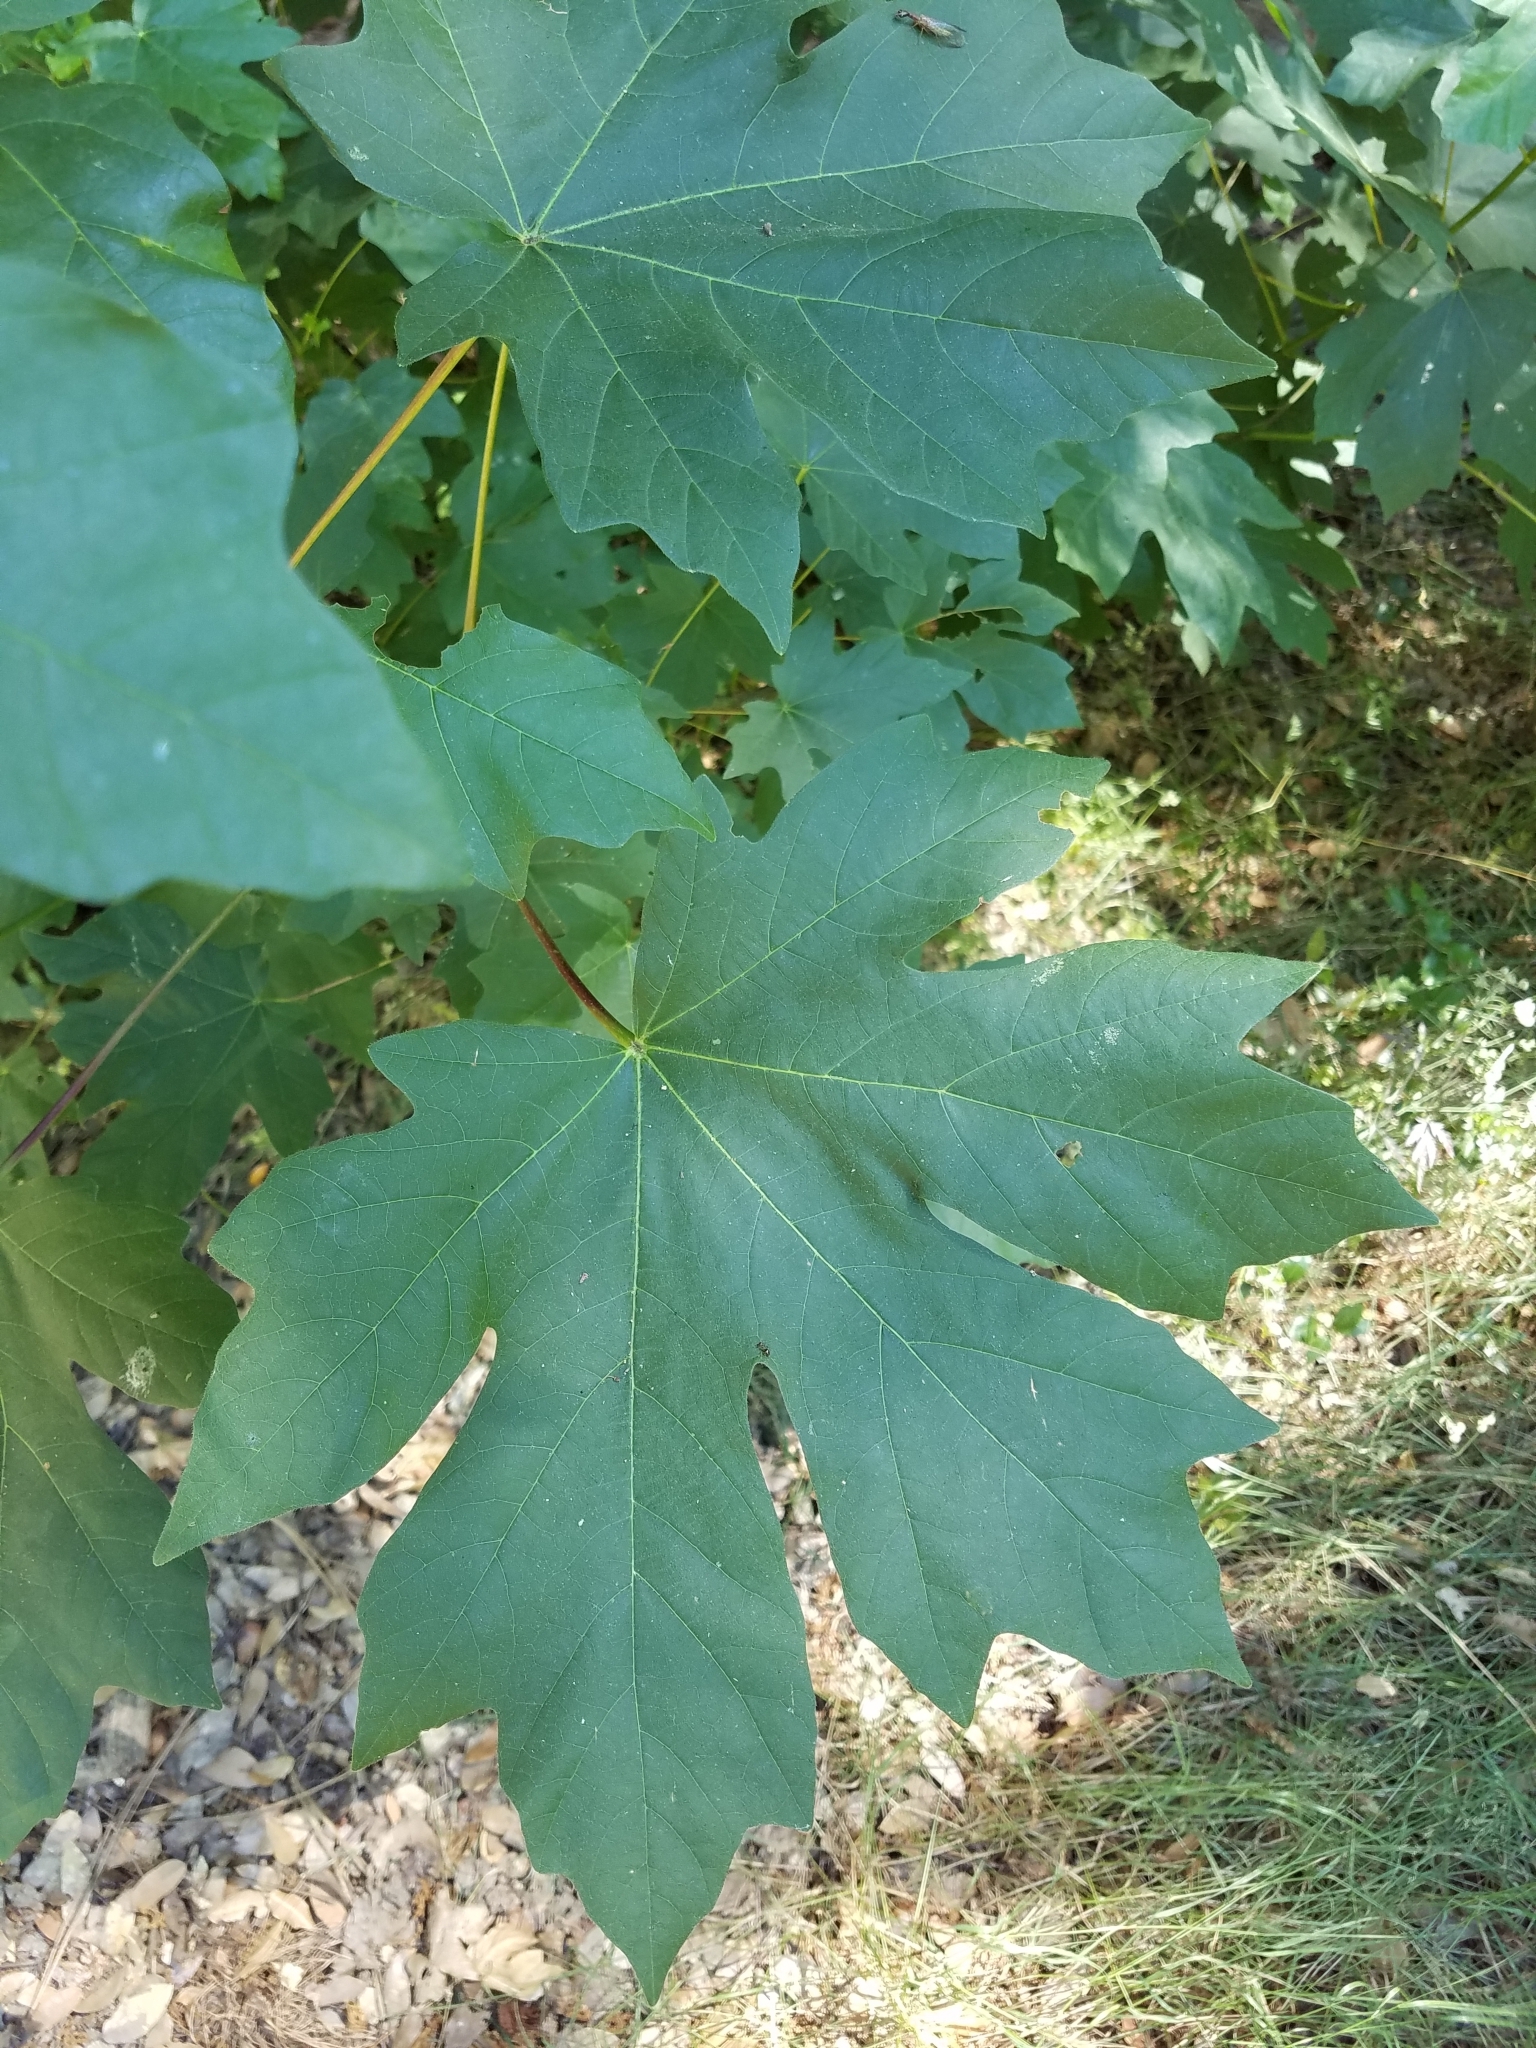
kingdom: Plantae
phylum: Tracheophyta
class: Magnoliopsida
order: Sapindales
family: Sapindaceae
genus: Acer
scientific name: Acer macrophyllum
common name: Oregon maple
